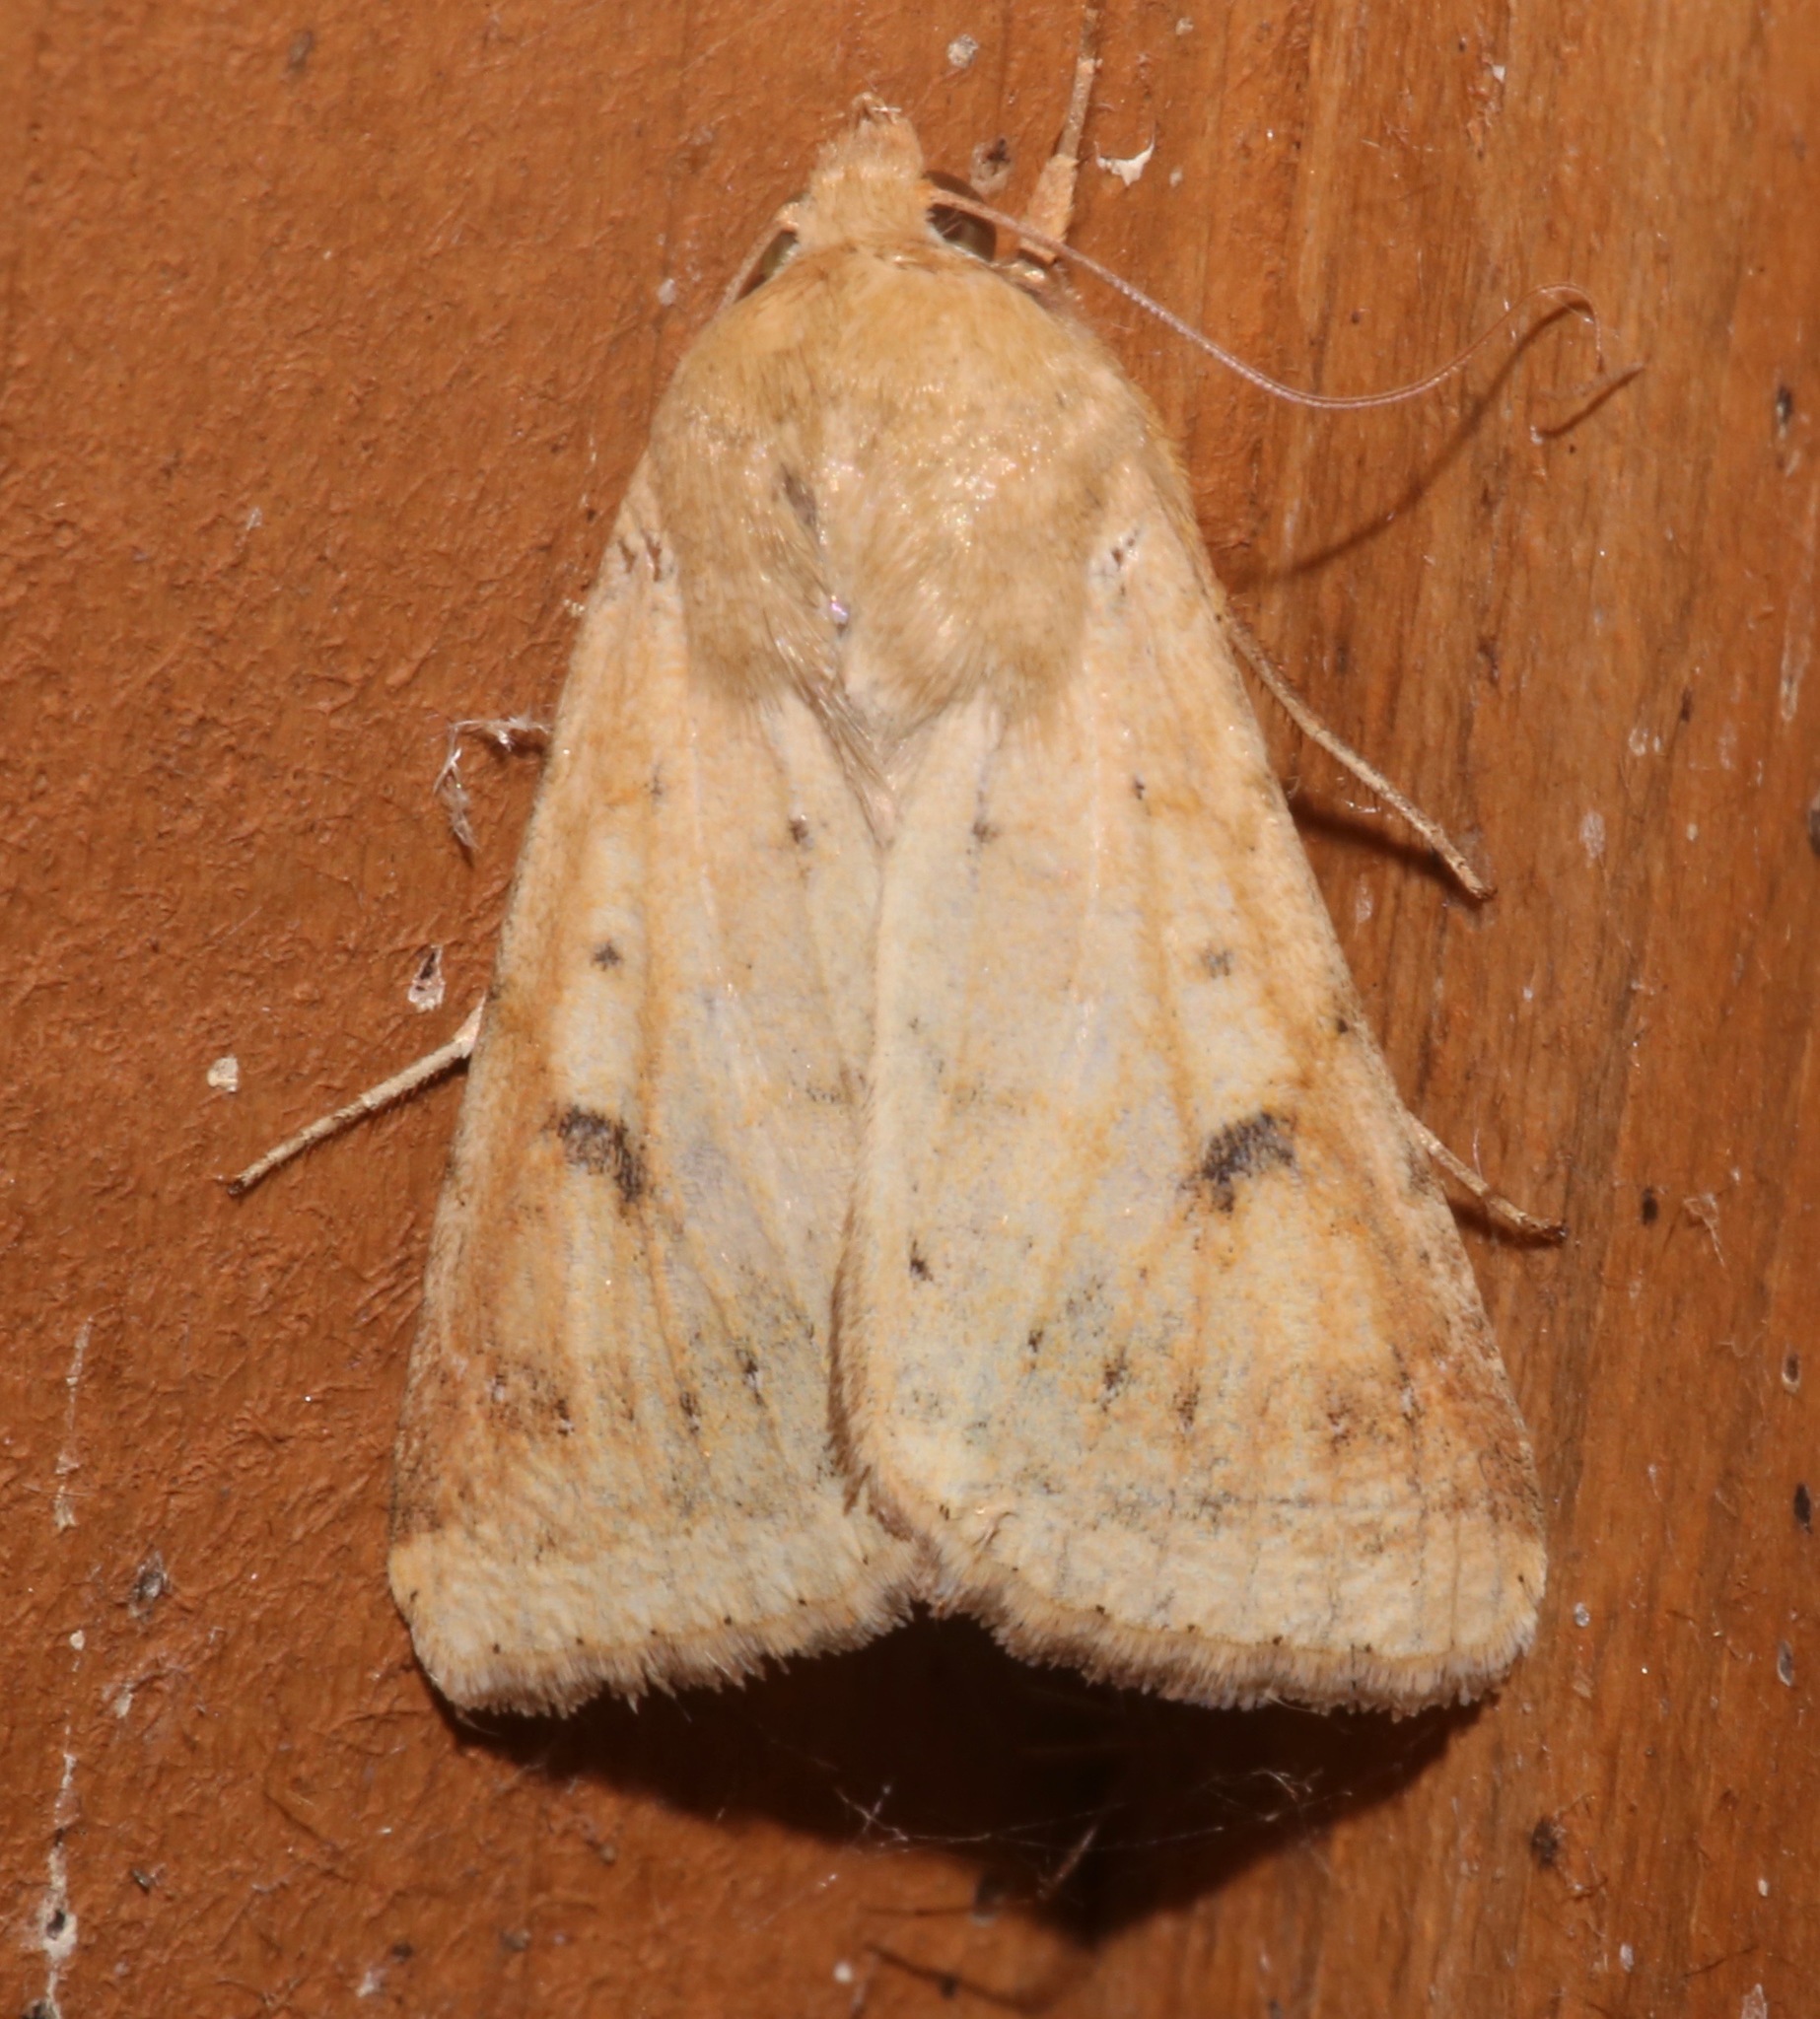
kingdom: Animalia
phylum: Arthropoda
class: Insecta
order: Lepidoptera
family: Noctuidae
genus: Helicoverpa
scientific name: Helicoverpa zea
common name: Bollworm
